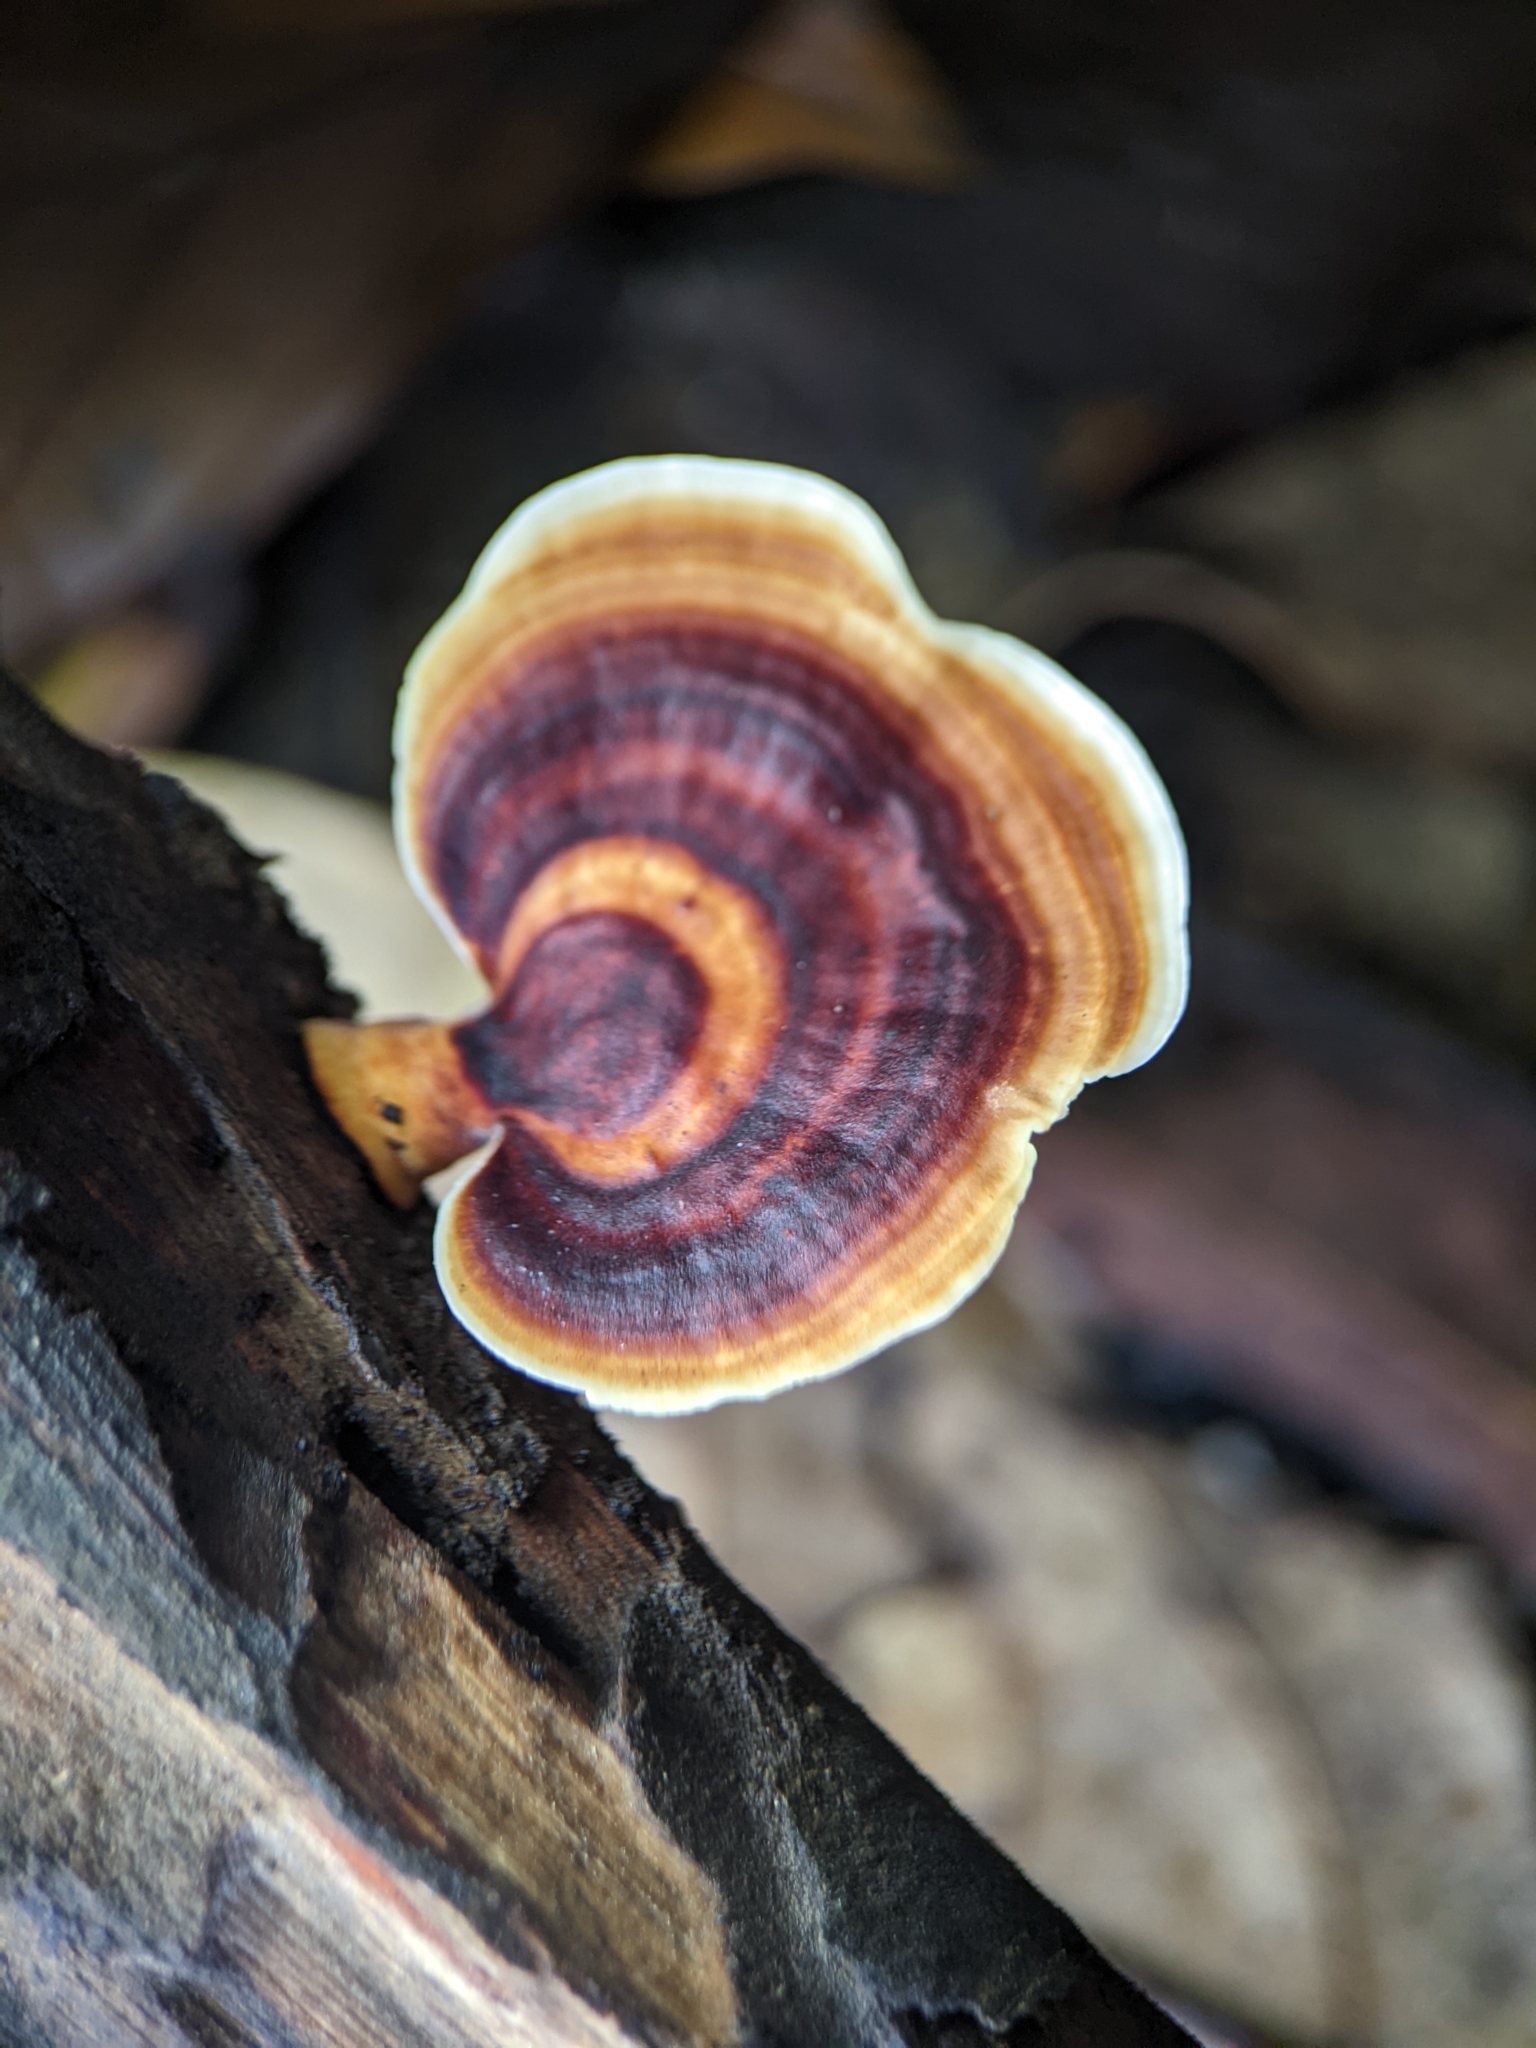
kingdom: Fungi
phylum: Basidiomycota
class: Agaricomycetes
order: Polyporales
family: Polyporaceae
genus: Microporus
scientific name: Microporus xanthopus
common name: Yellow-stemmed micropore
